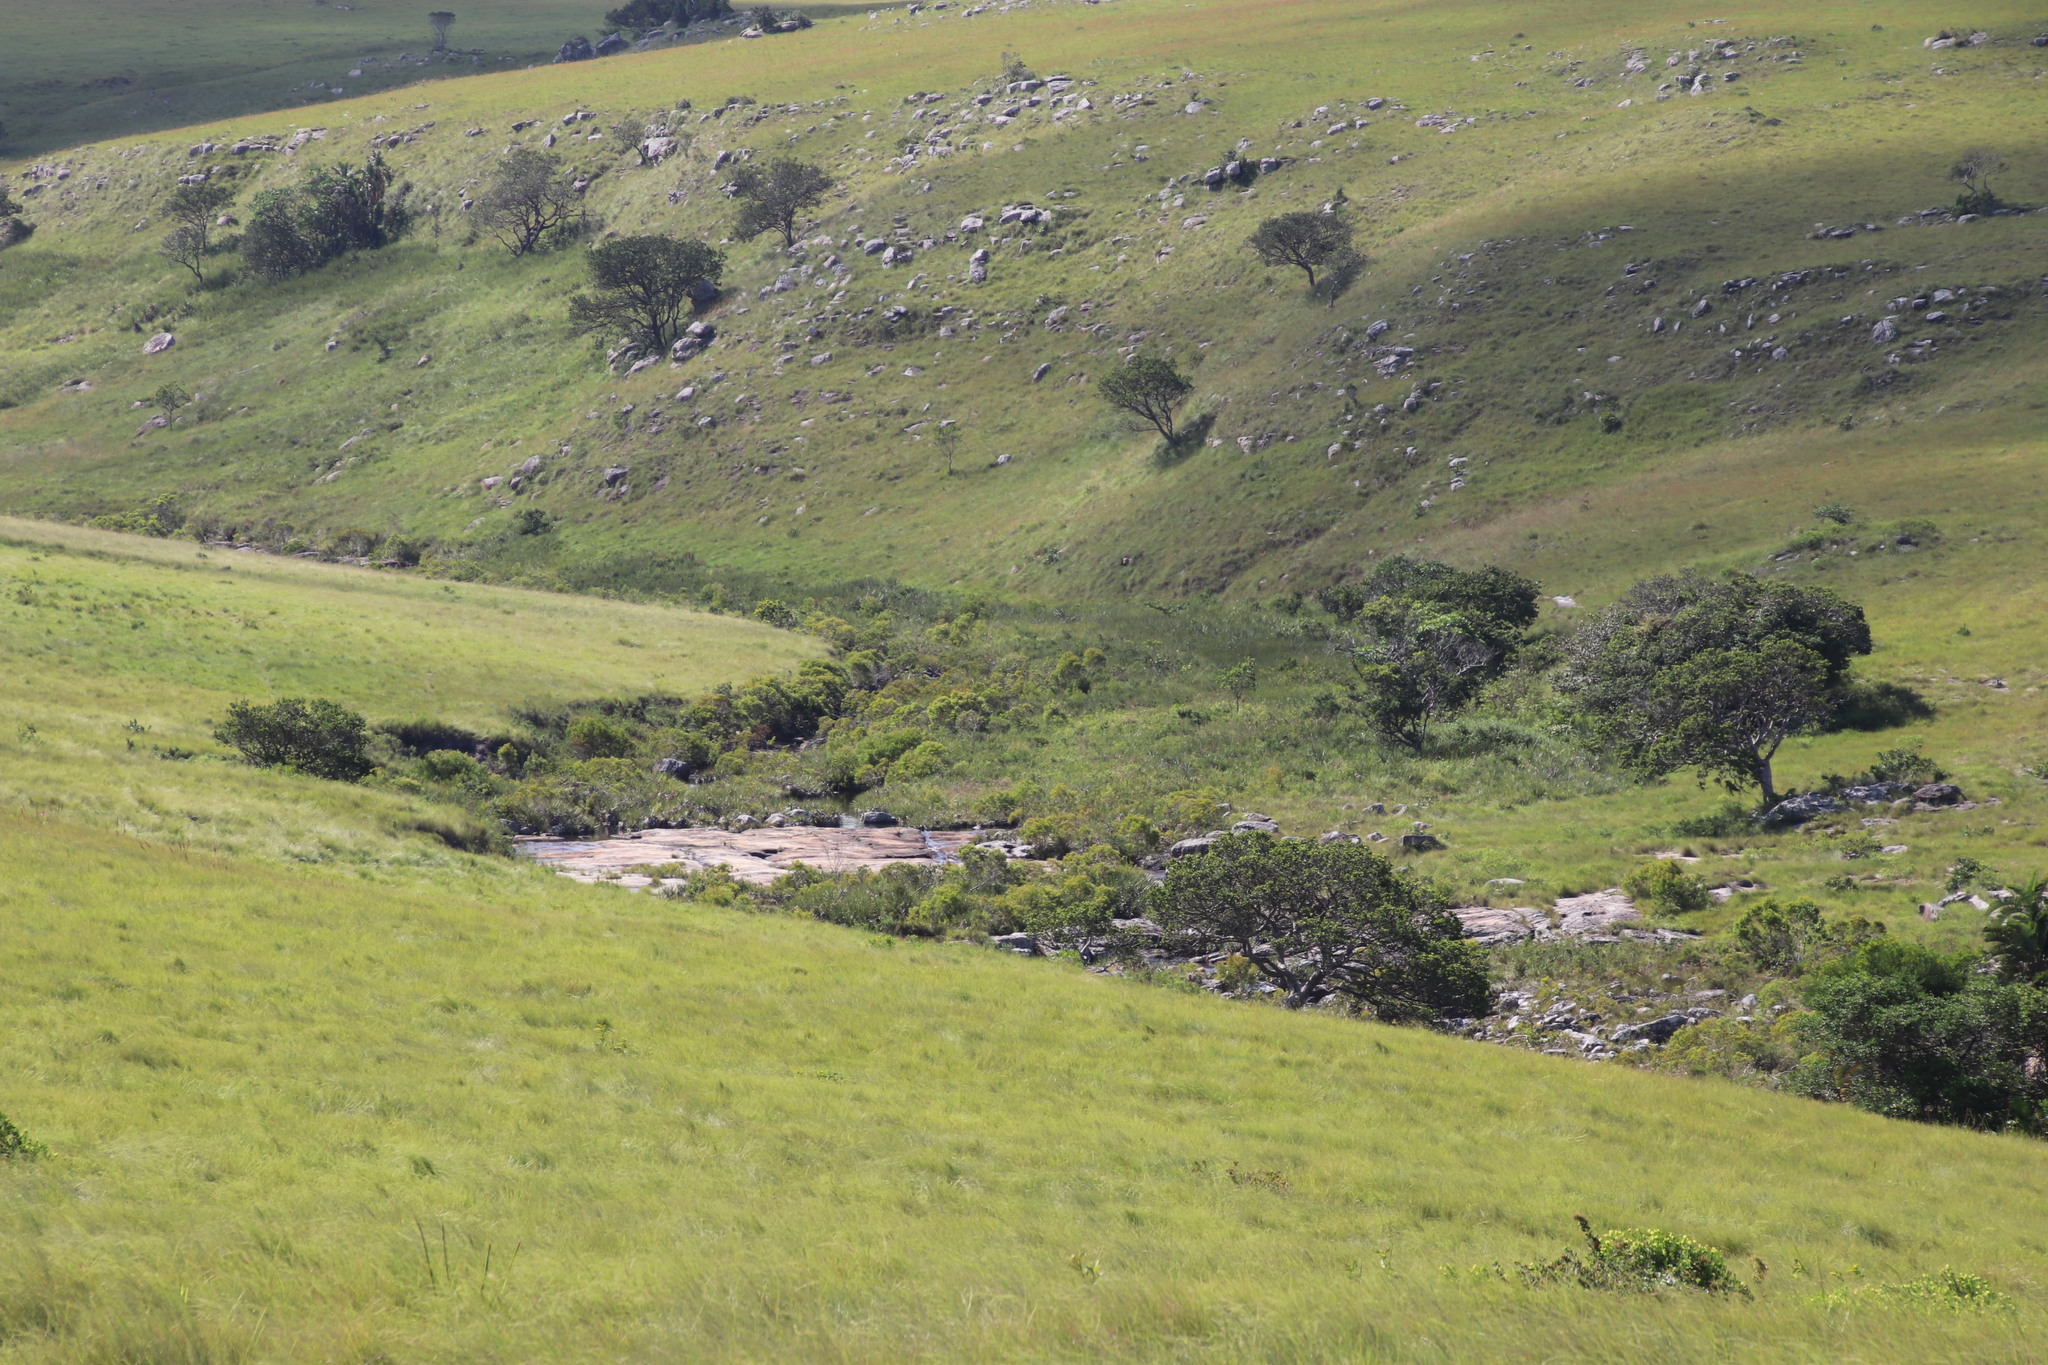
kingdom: Plantae
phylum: Tracheophyta
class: Magnoliopsida
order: Proteales
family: Proteaceae
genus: Leucadendron
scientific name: Leucadendron pondoense
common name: Pondoland conebush
